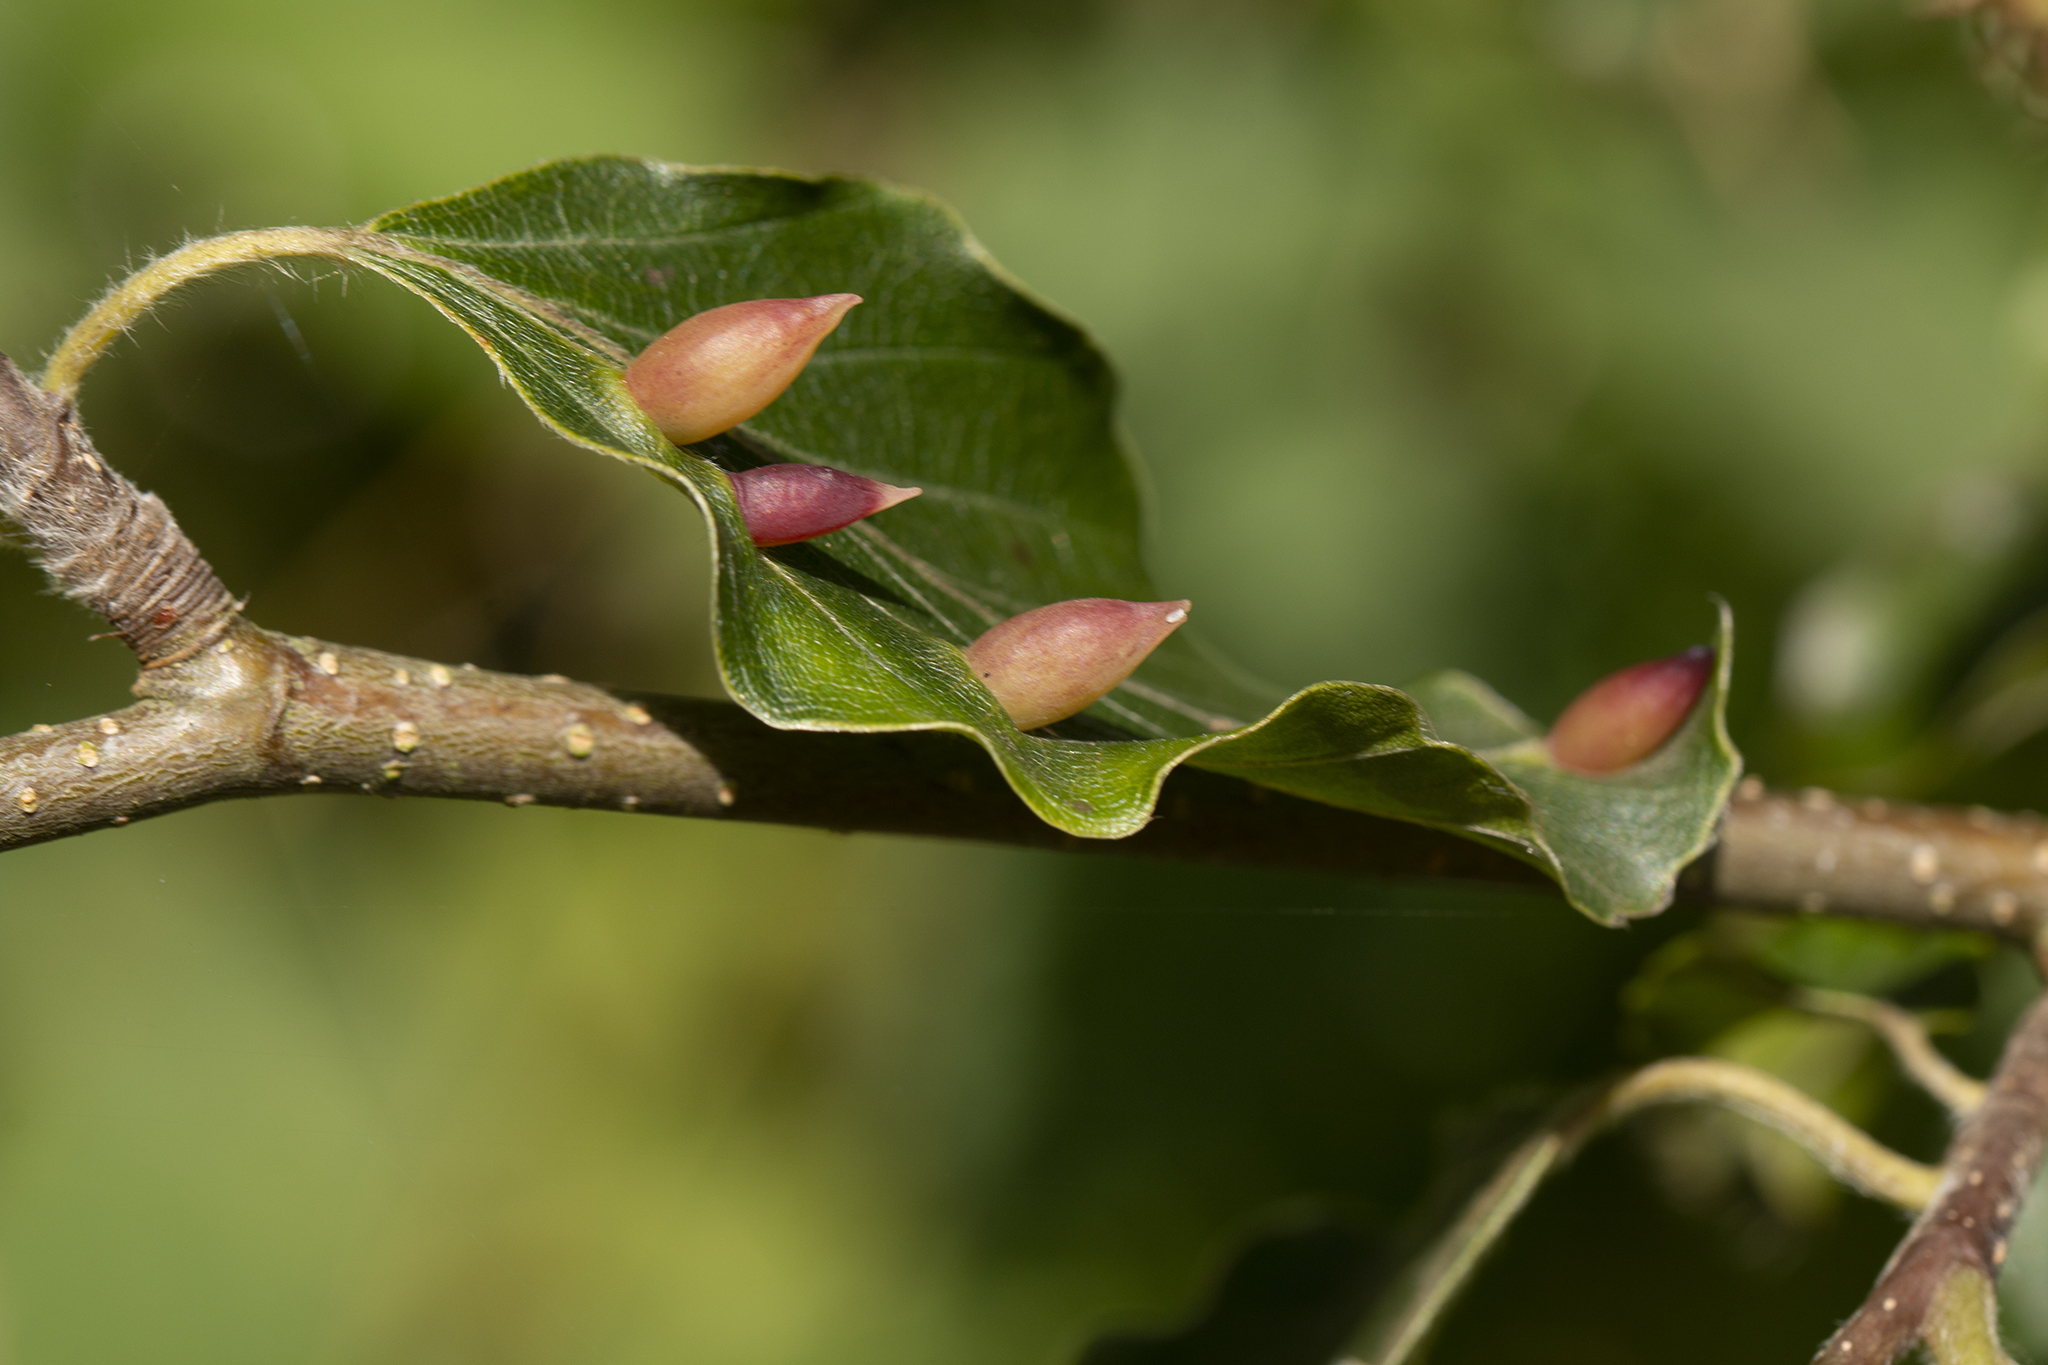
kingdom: Animalia
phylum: Arthropoda
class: Insecta
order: Diptera
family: Cecidomyiidae
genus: Mikiola
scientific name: Mikiola fagi
